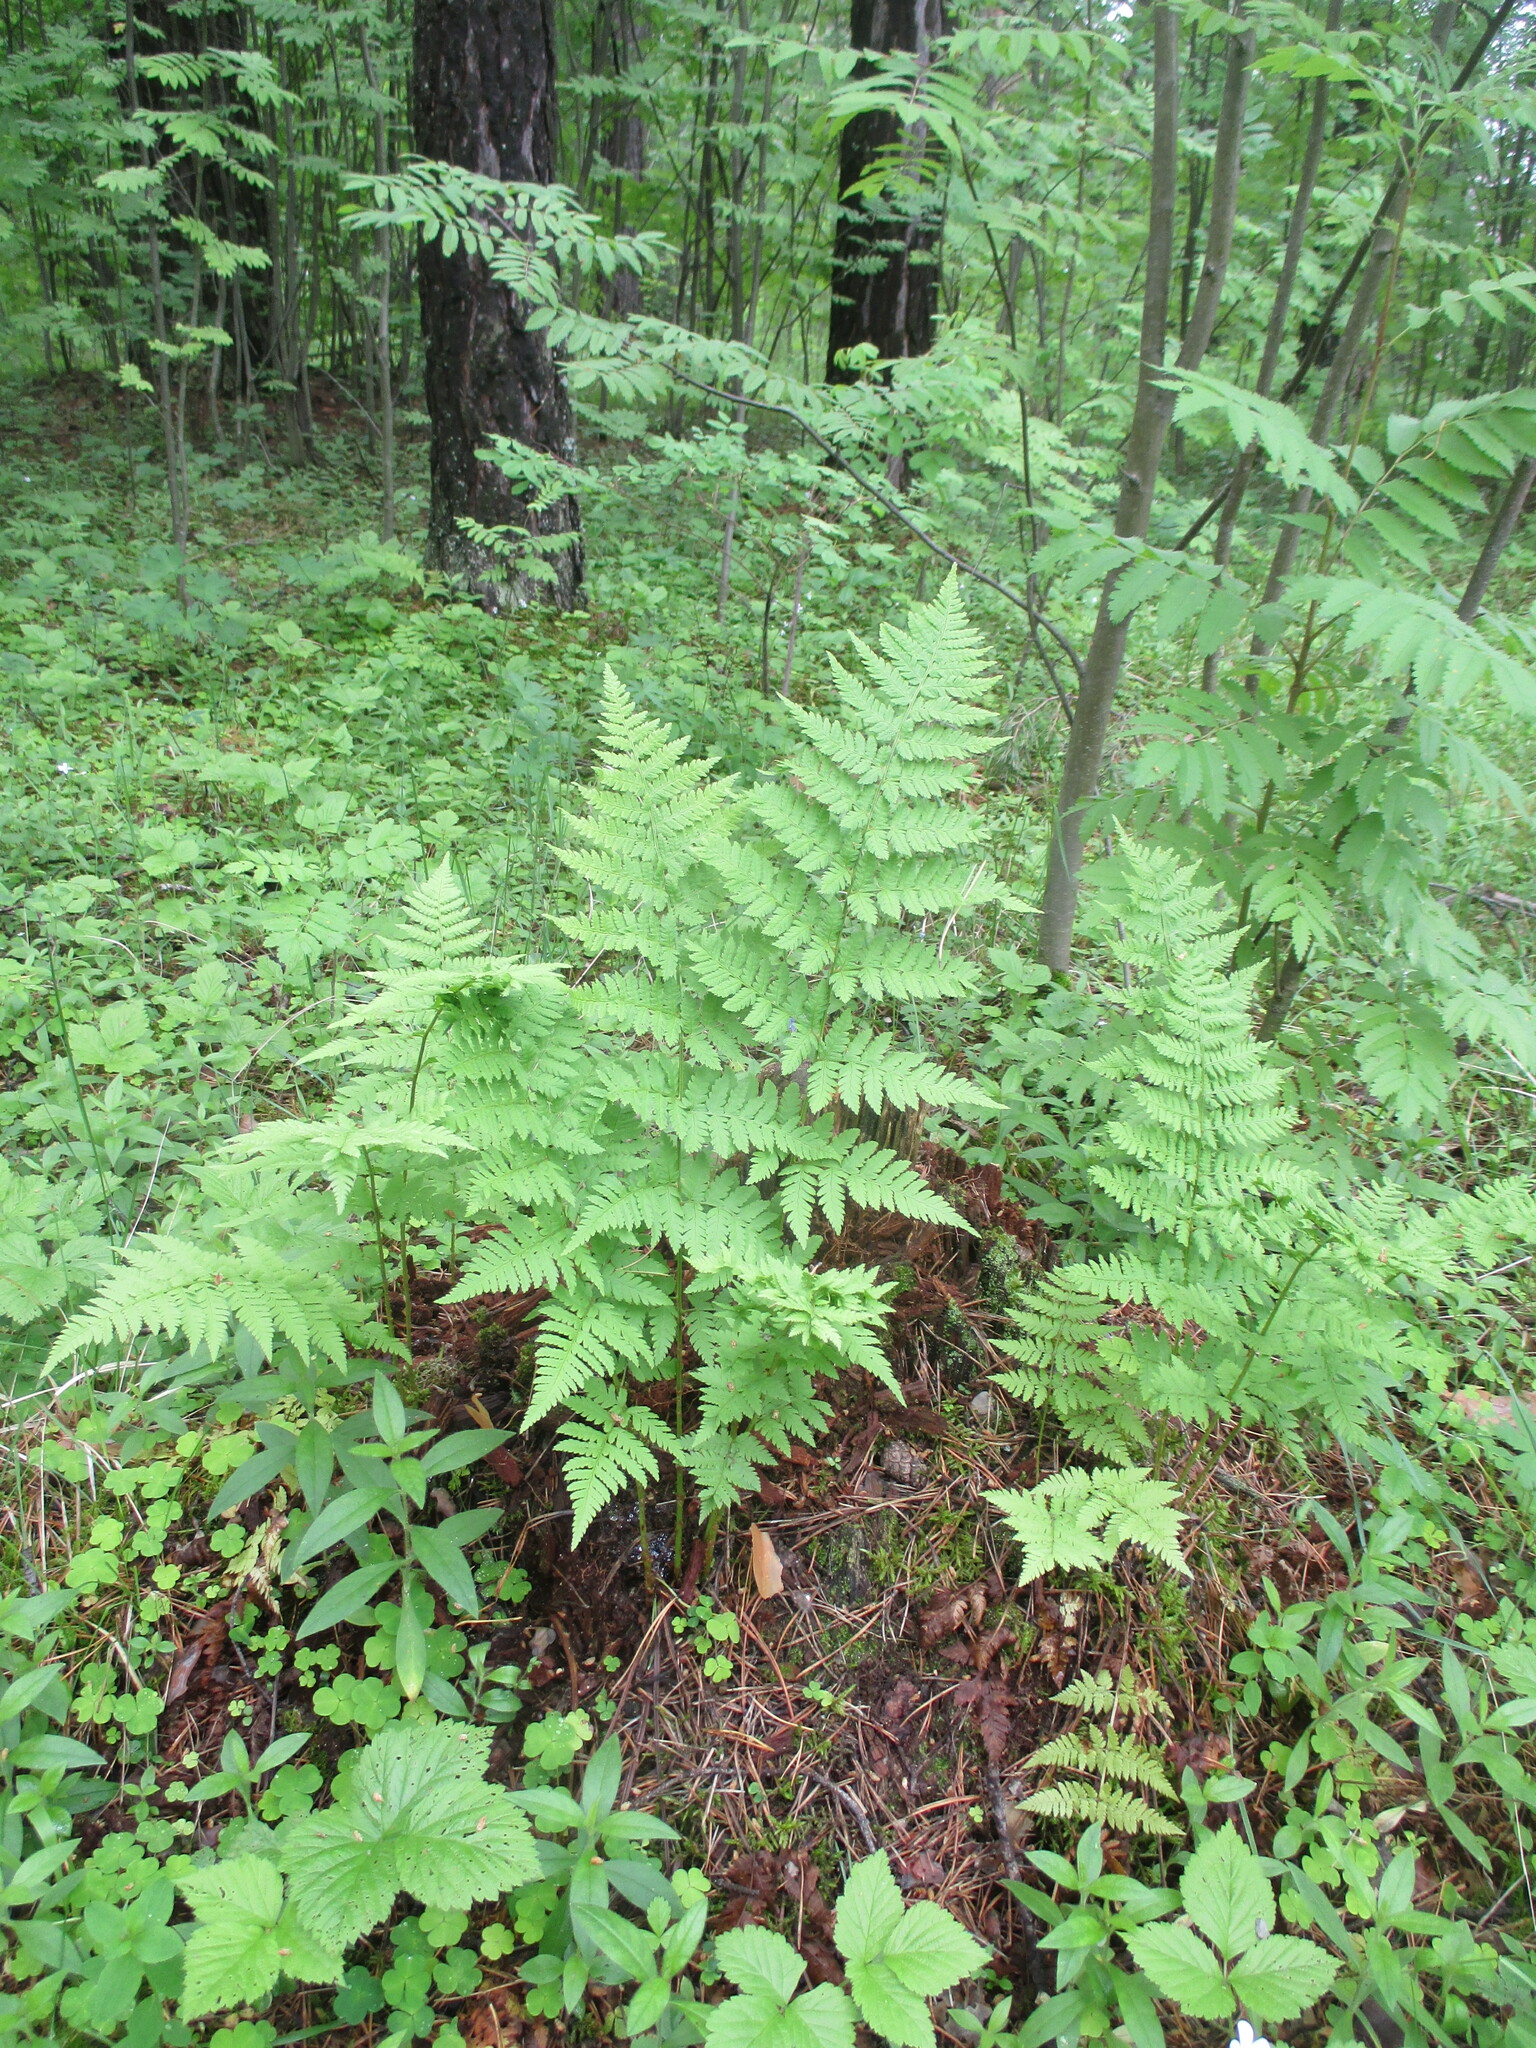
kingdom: Plantae
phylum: Tracheophyta
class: Polypodiopsida
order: Polypodiales
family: Dryopteridaceae
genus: Dryopteris
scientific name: Dryopteris carthusiana
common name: Narrow buckler-fern
